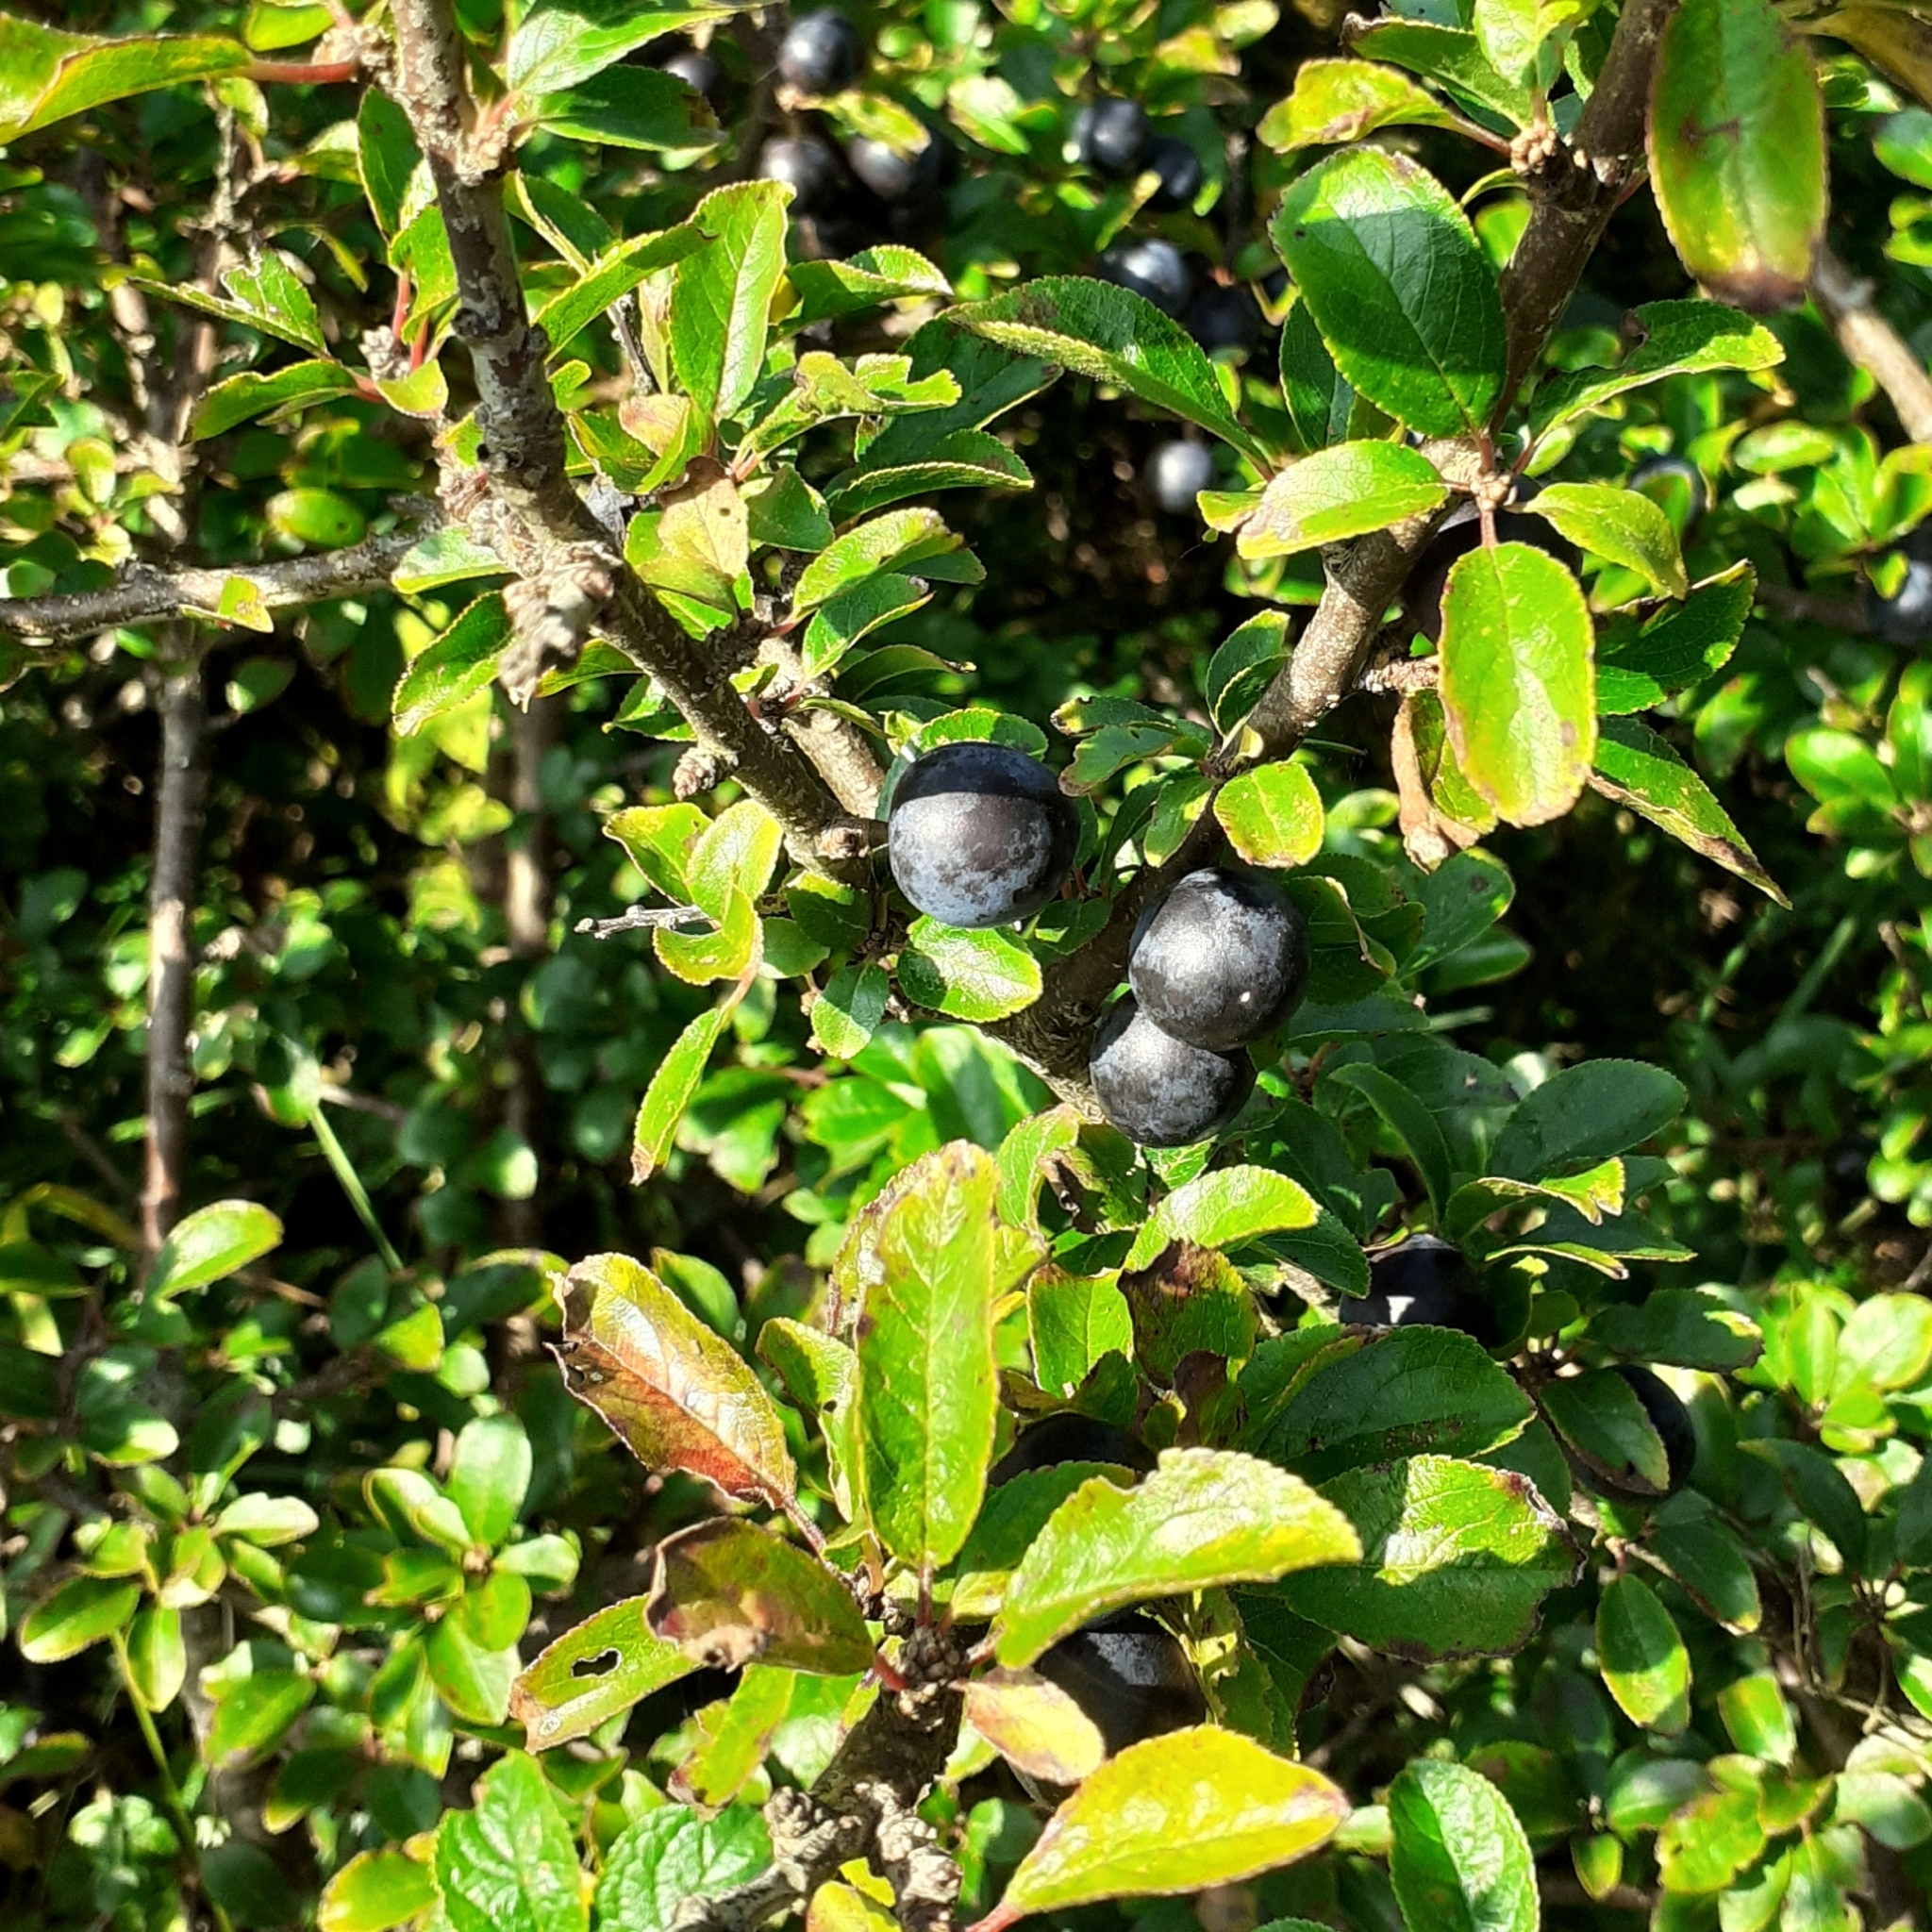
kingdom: Plantae
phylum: Tracheophyta
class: Magnoliopsida
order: Rosales
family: Rosaceae
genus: Prunus
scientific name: Prunus spinosa
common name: Blackthorn
